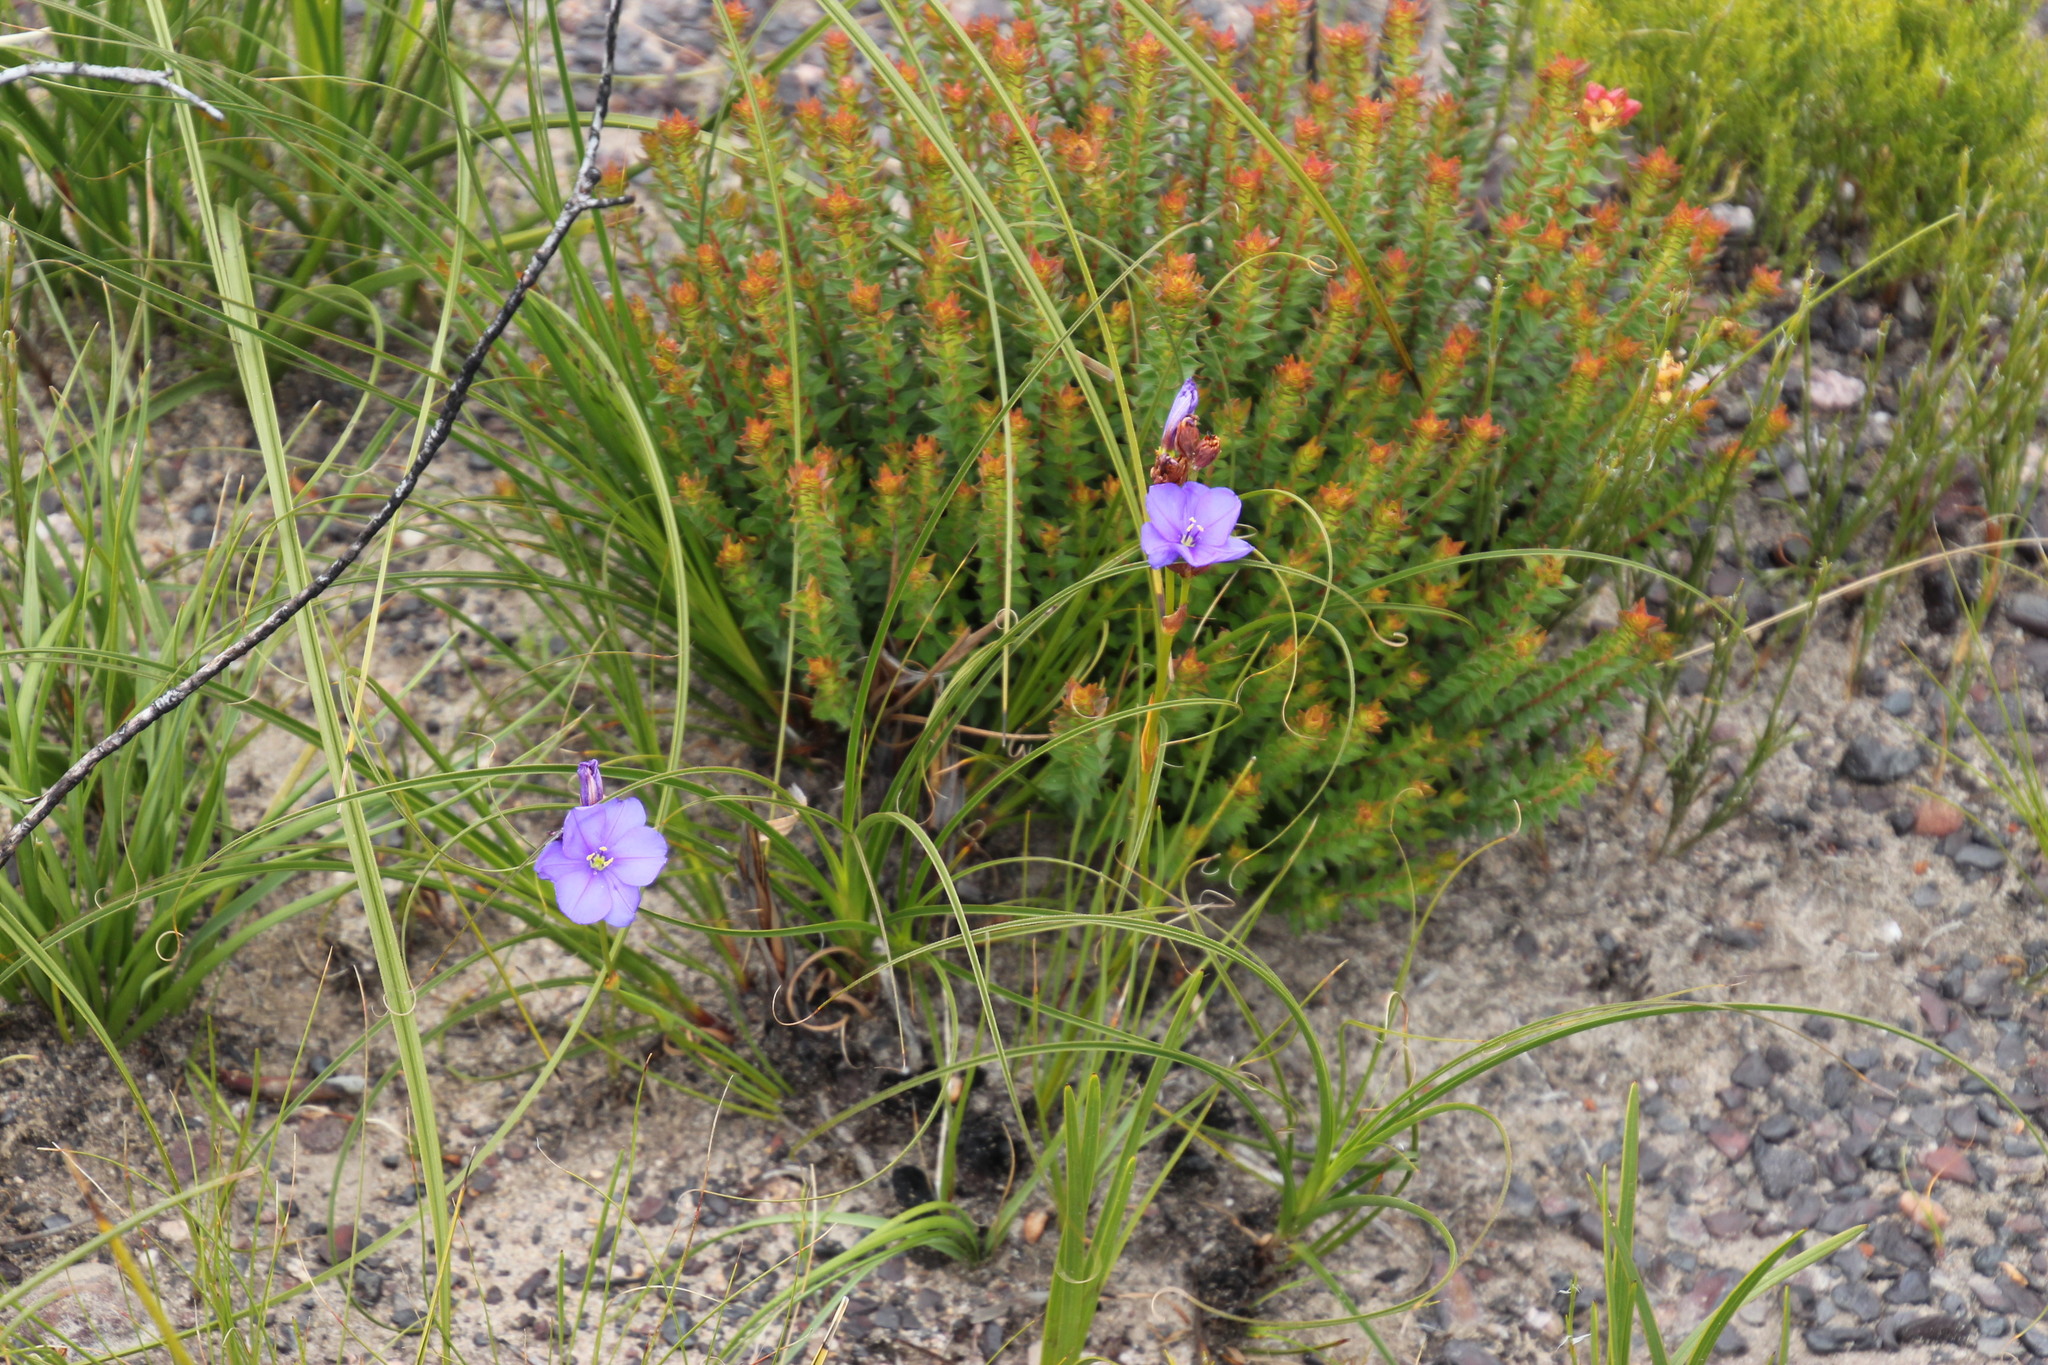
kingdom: Plantae
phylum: Tracheophyta
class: Liliopsida
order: Asparagales
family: Iridaceae
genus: Aristea
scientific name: Aristea juncifolia
